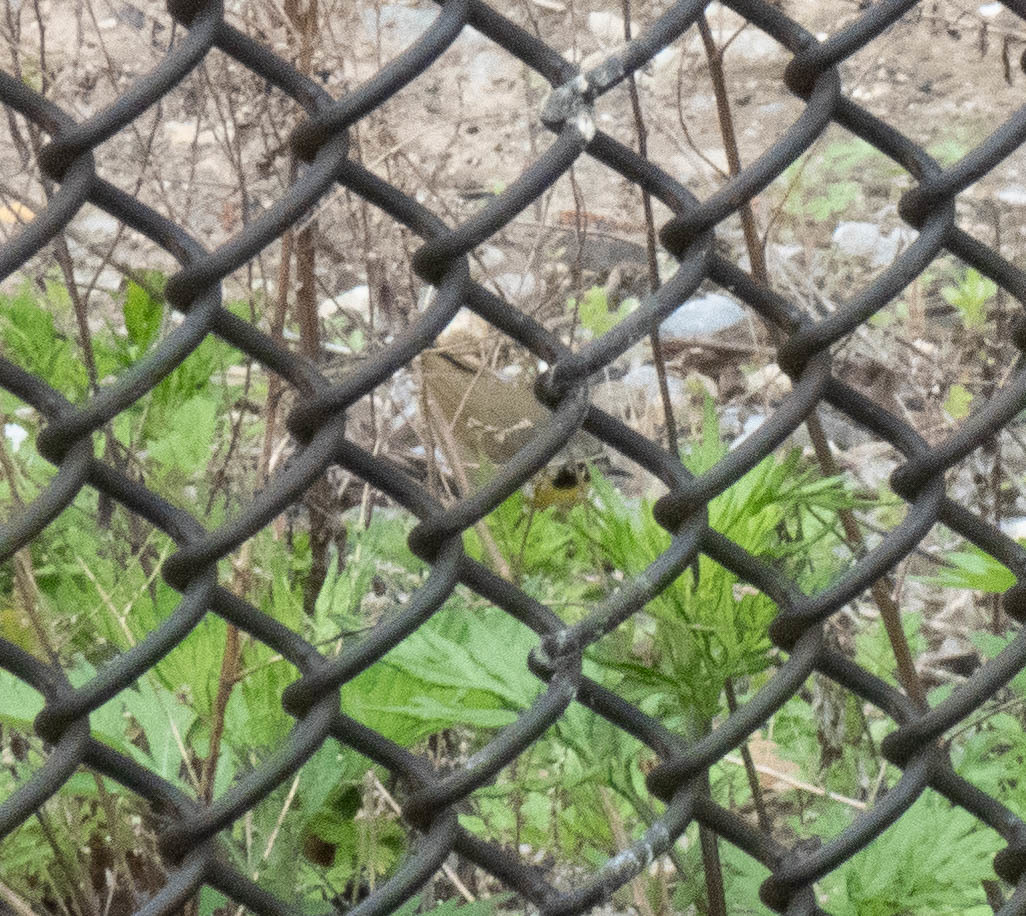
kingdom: Animalia
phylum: Chordata
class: Aves
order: Passeriformes
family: Parulidae
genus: Geothlypis
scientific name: Geothlypis trichas
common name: Common yellowthroat
